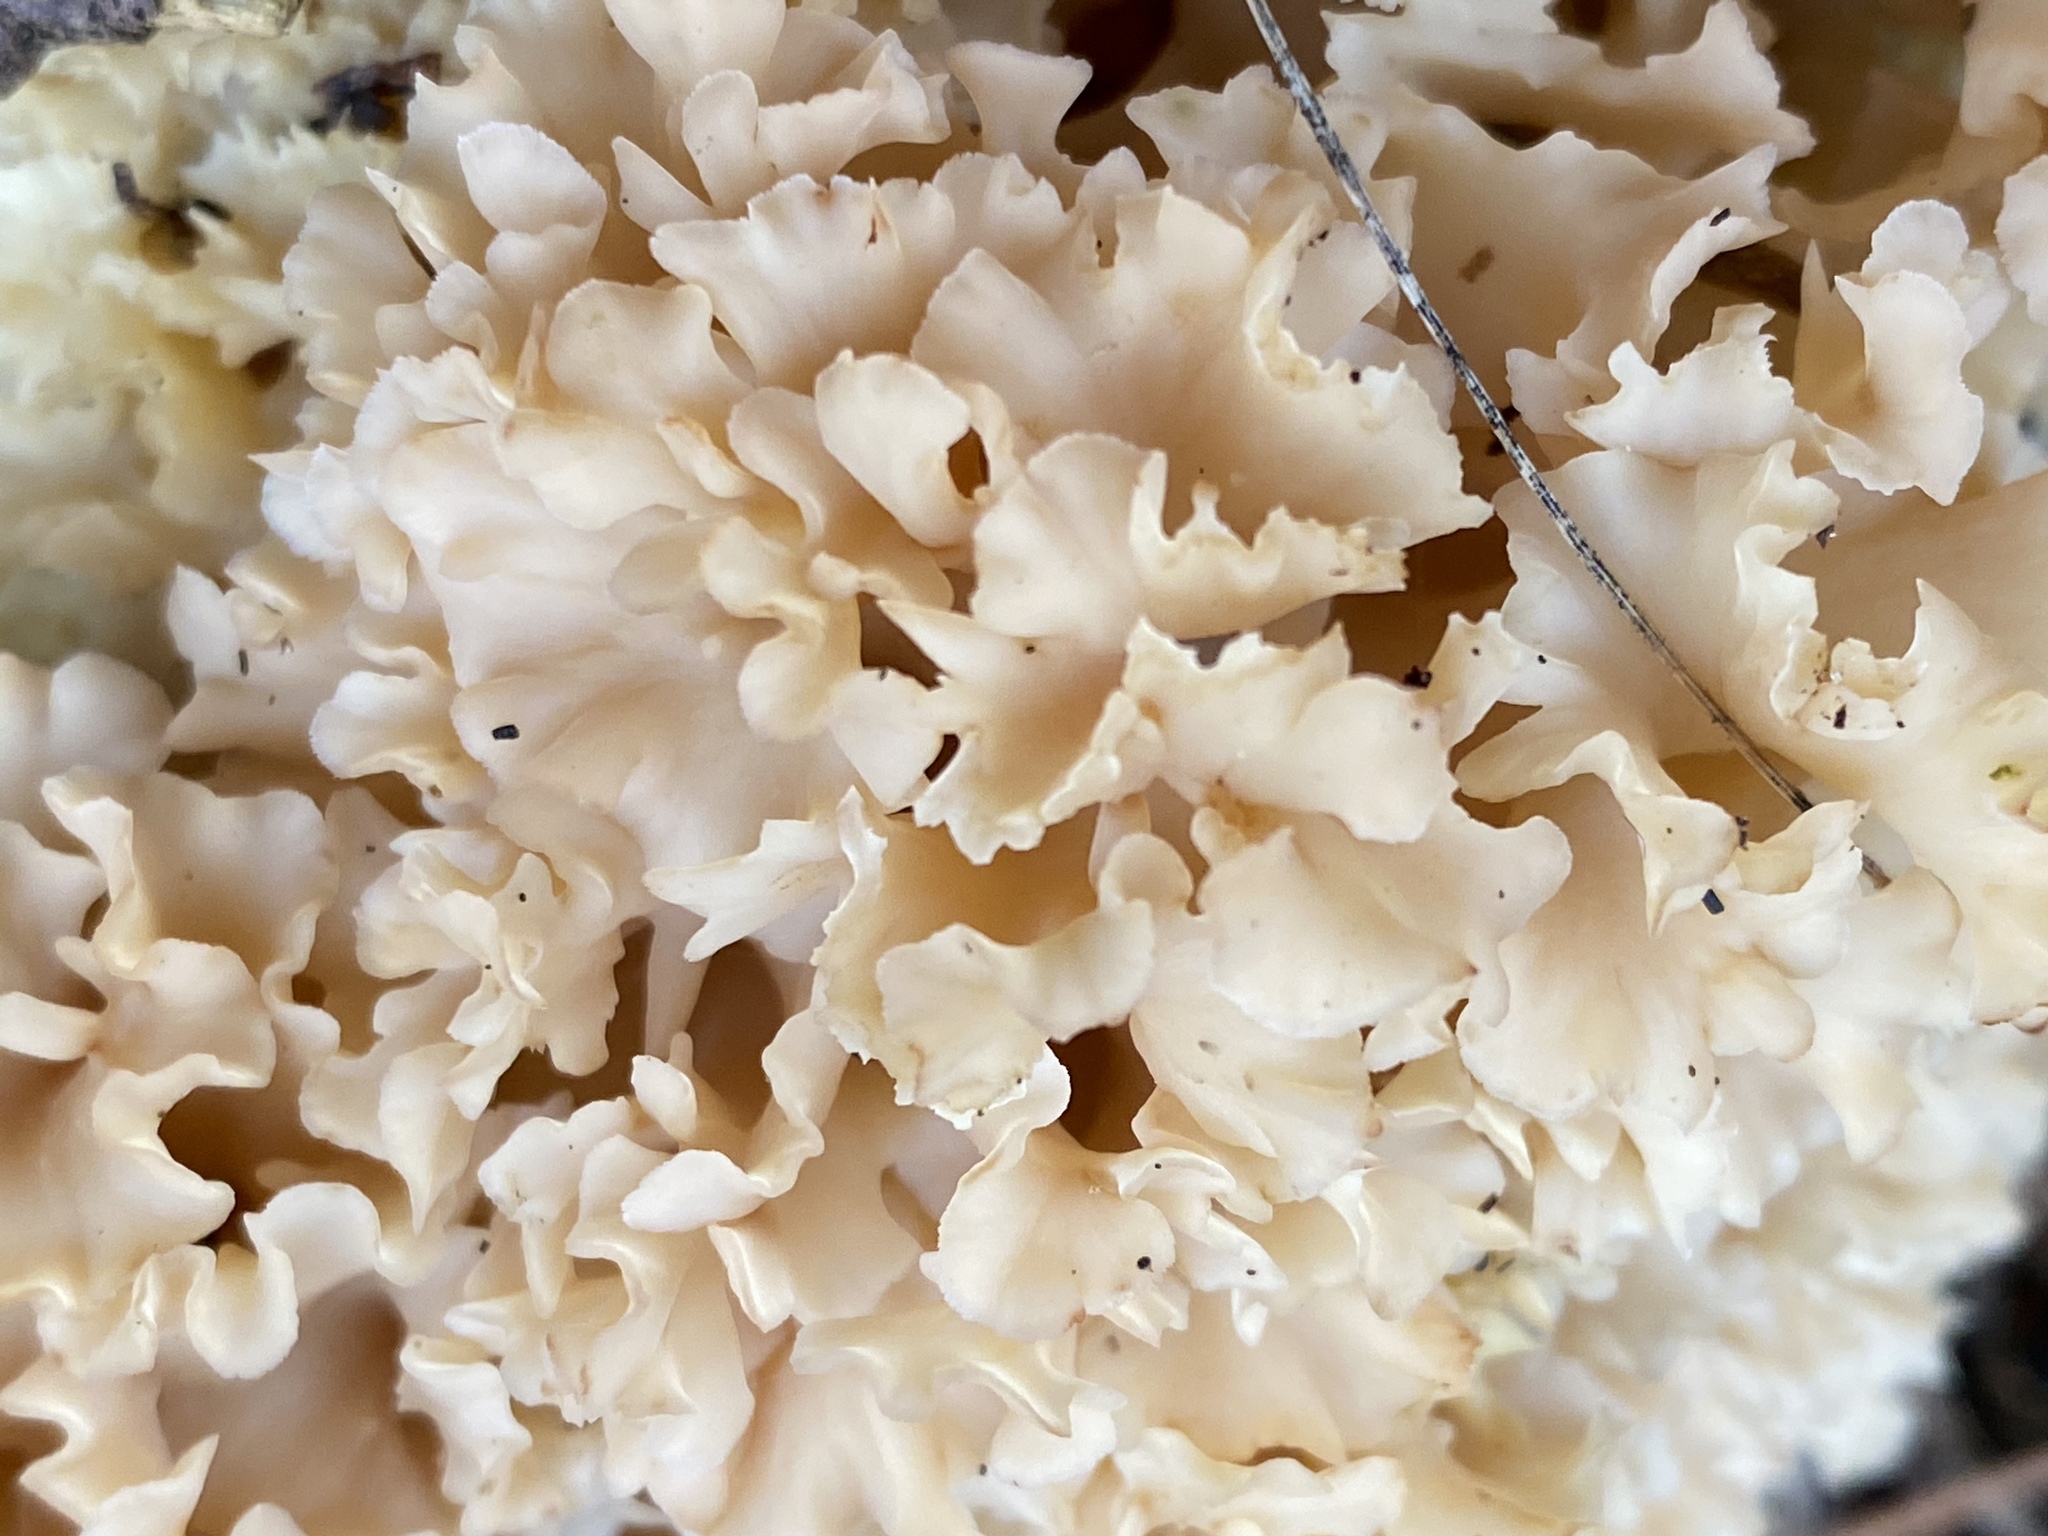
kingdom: Fungi
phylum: Basidiomycota
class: Agaricomycetes
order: Polyporales
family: Sparassidaceae
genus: Sparassis
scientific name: Sparassis crispa
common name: Brain fungus
